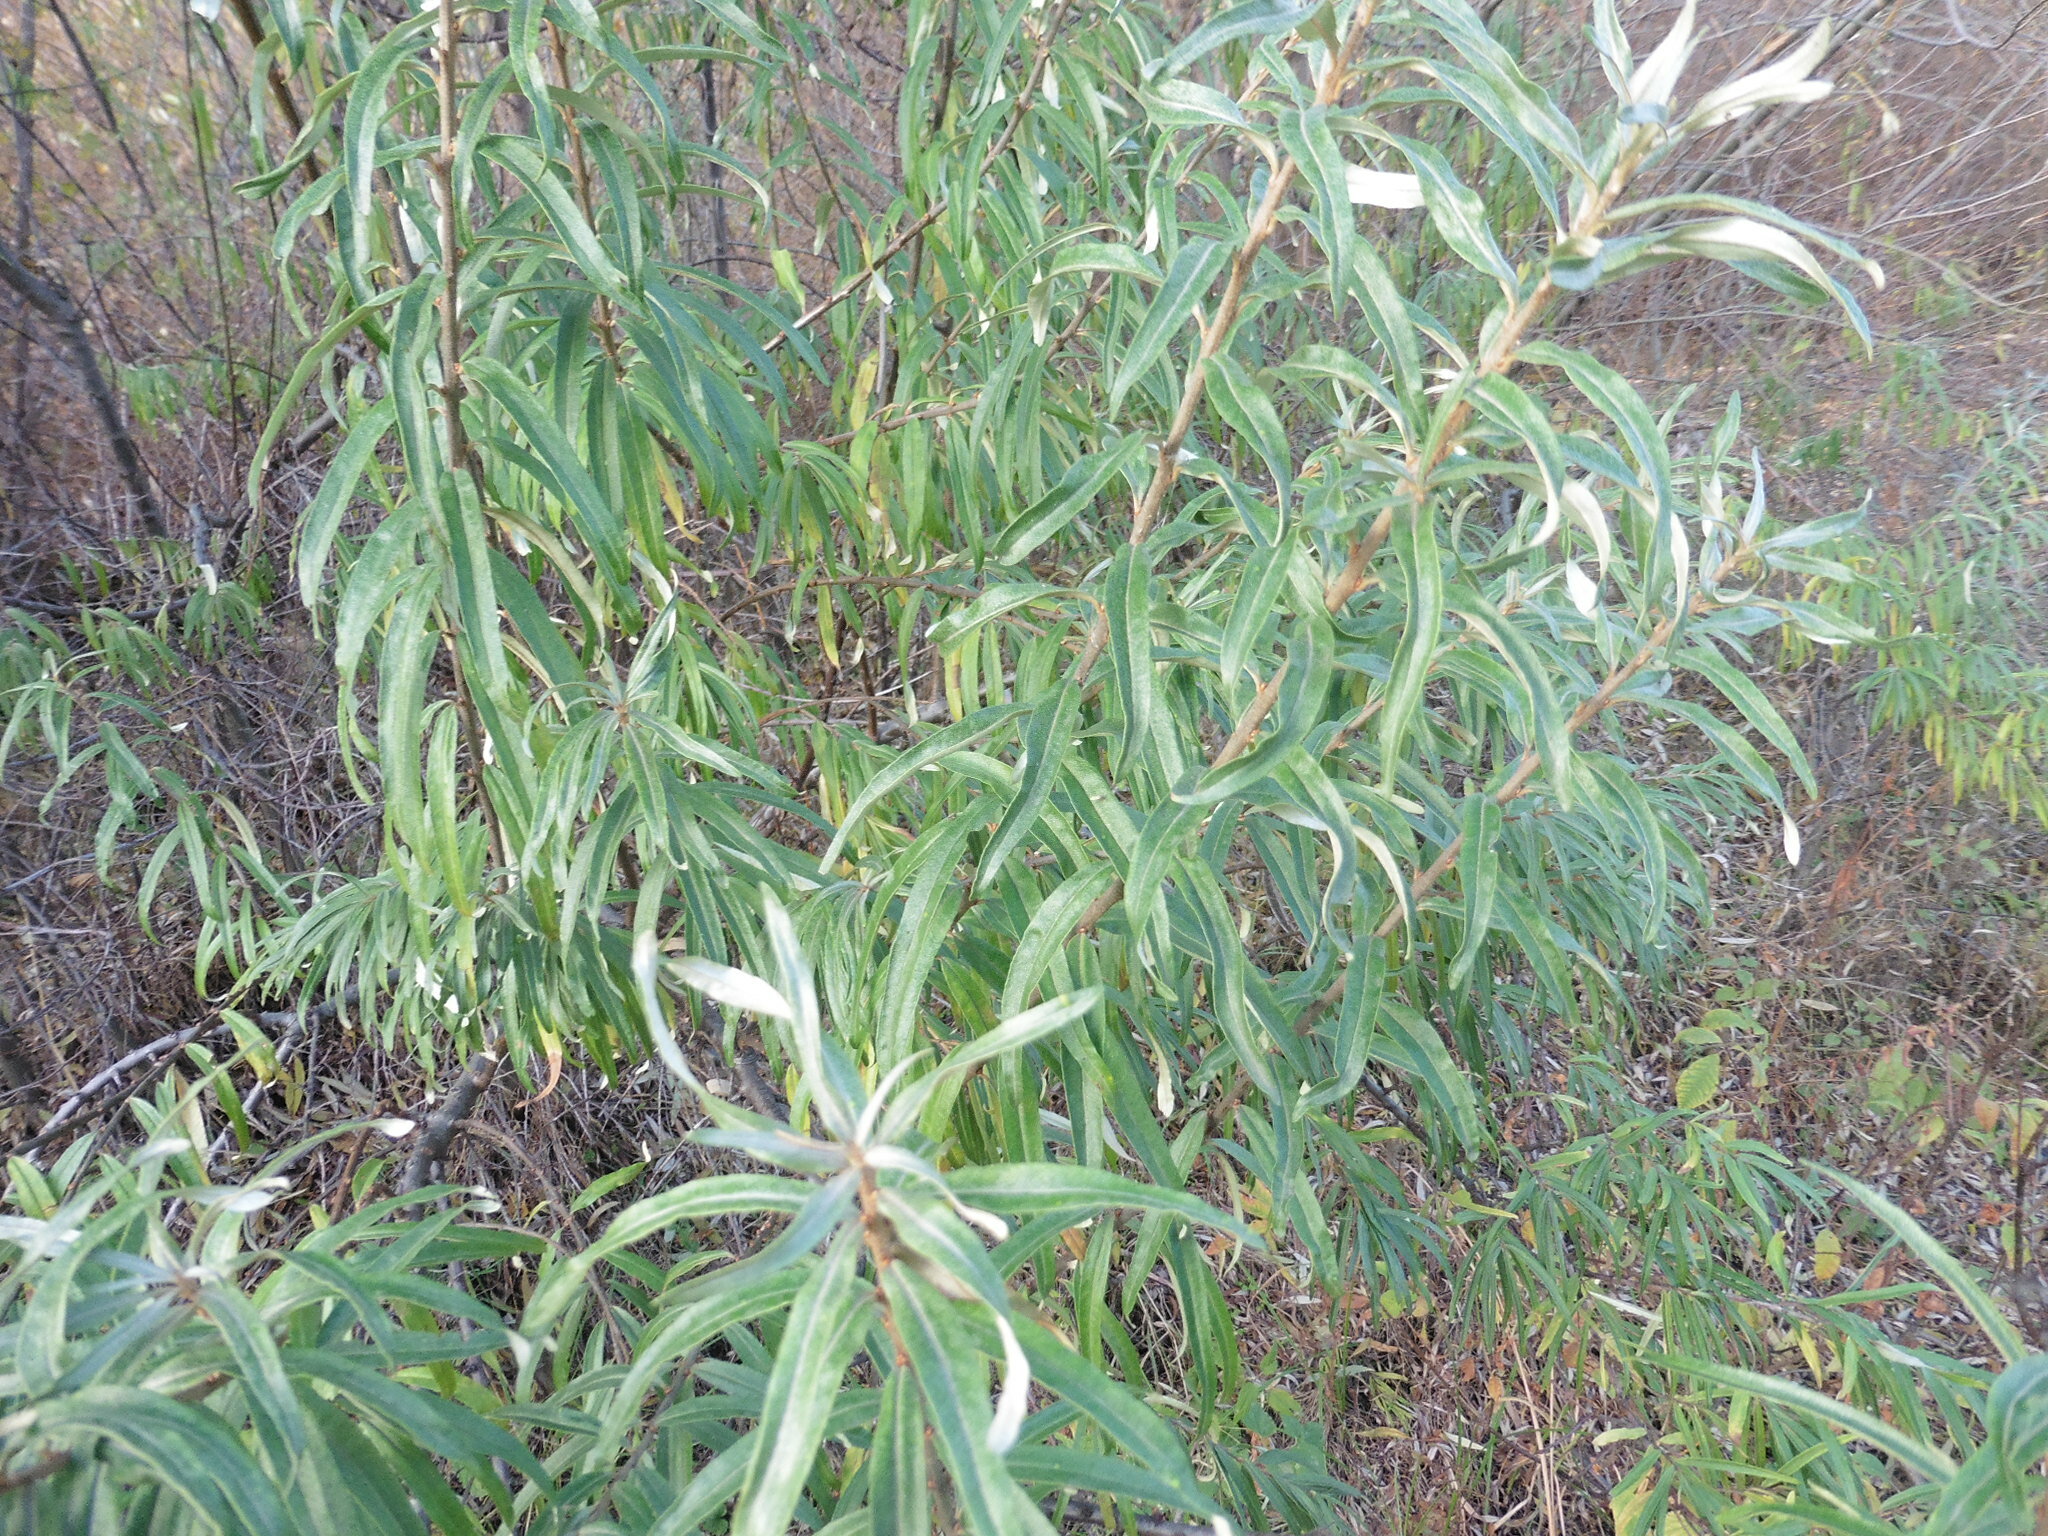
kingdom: Plantae
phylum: Tracheophyta
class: Magnoliopsida
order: Rosales
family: Elaeagnaceae
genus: Hippophae
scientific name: Hippophae rhamnoides
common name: Sea-buckthorn
